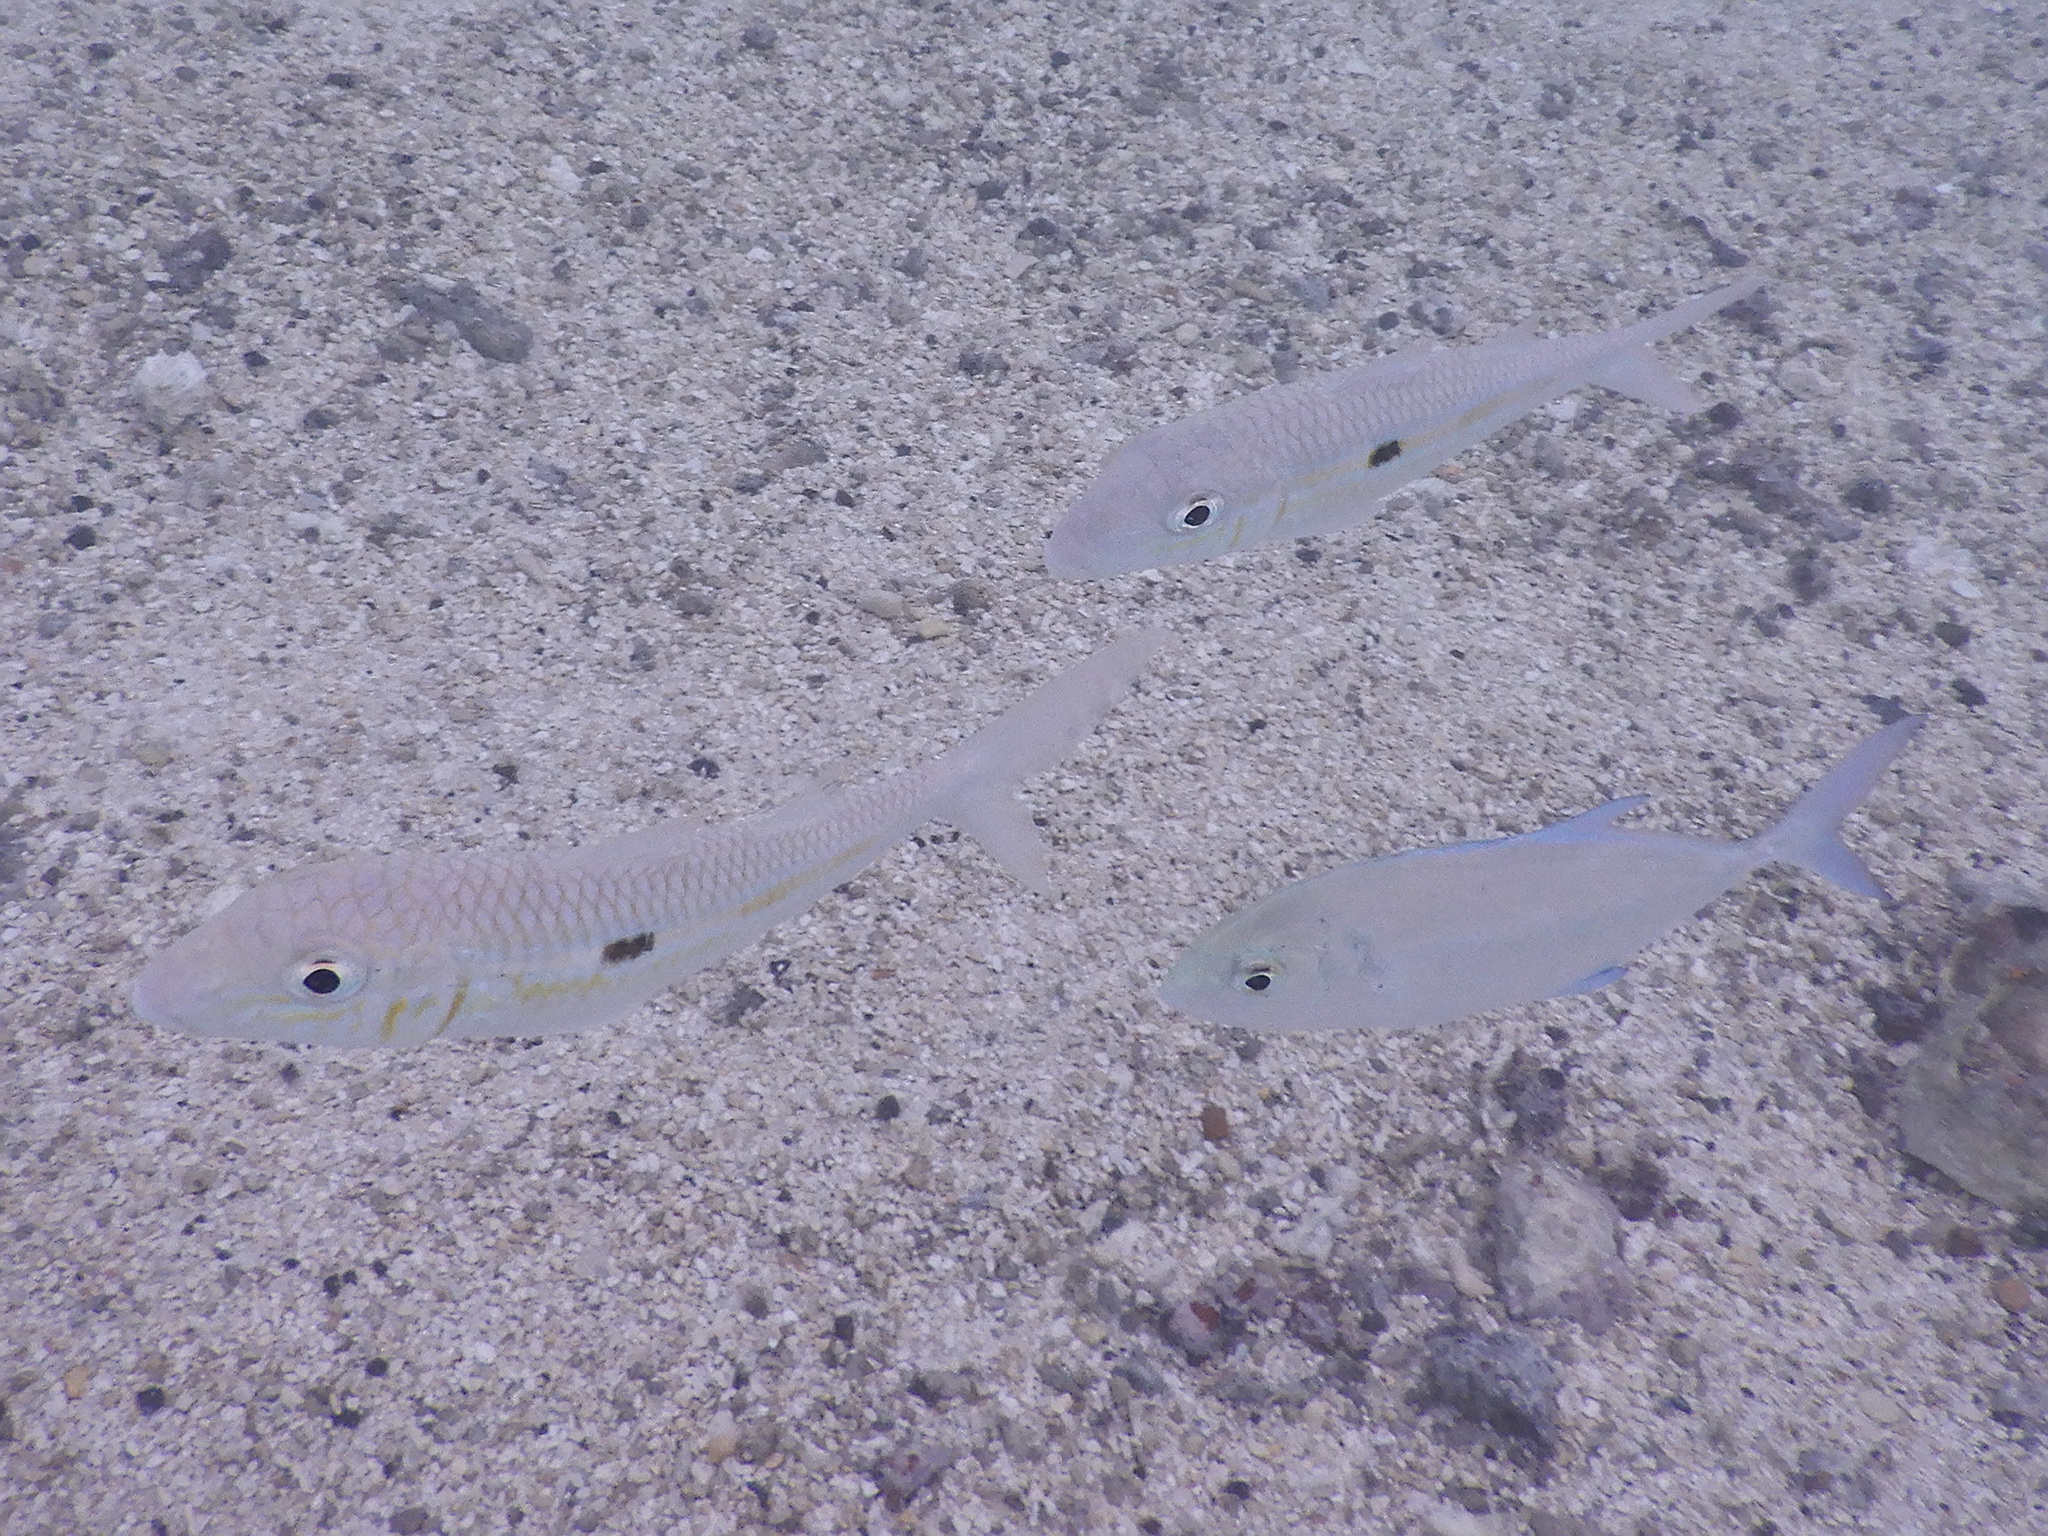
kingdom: Animalia
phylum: Chordata
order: Perciformes
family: Mullidae
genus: Mulloidichthys
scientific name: Mulloidichthys flavolineatus
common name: Yellowstripe goatfish
